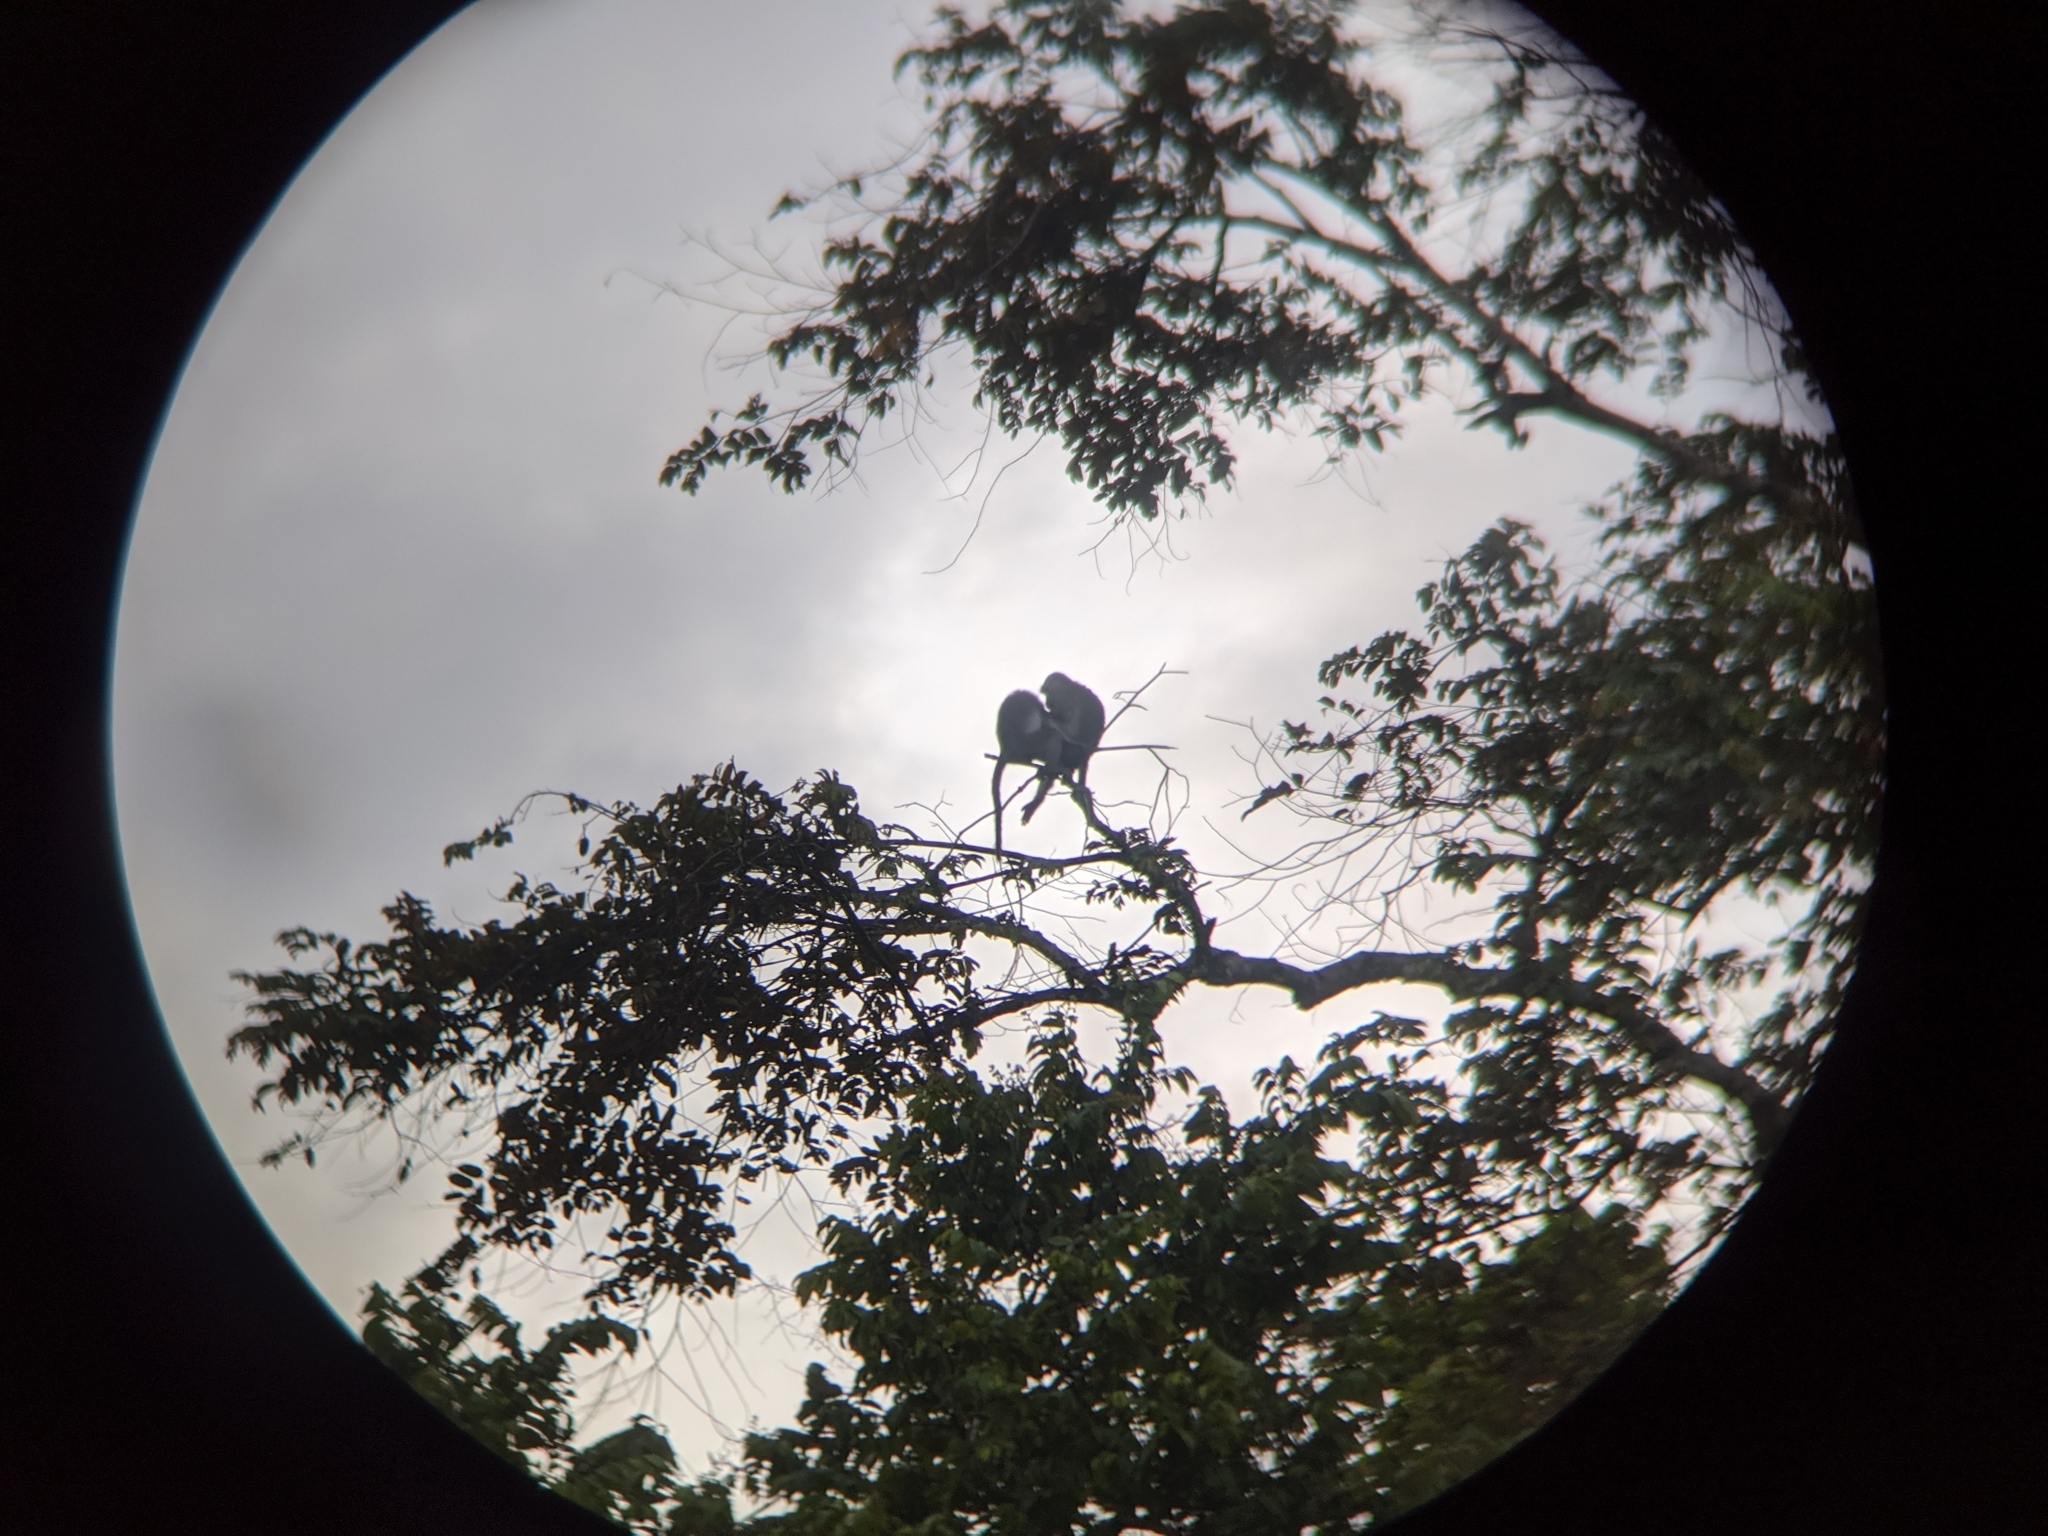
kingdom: Animalia
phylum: Chordata
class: Mammalia
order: Primates
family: Cercopithecidae
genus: Macaca
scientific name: Macaca fascicularis
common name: Crab-eating macaque
